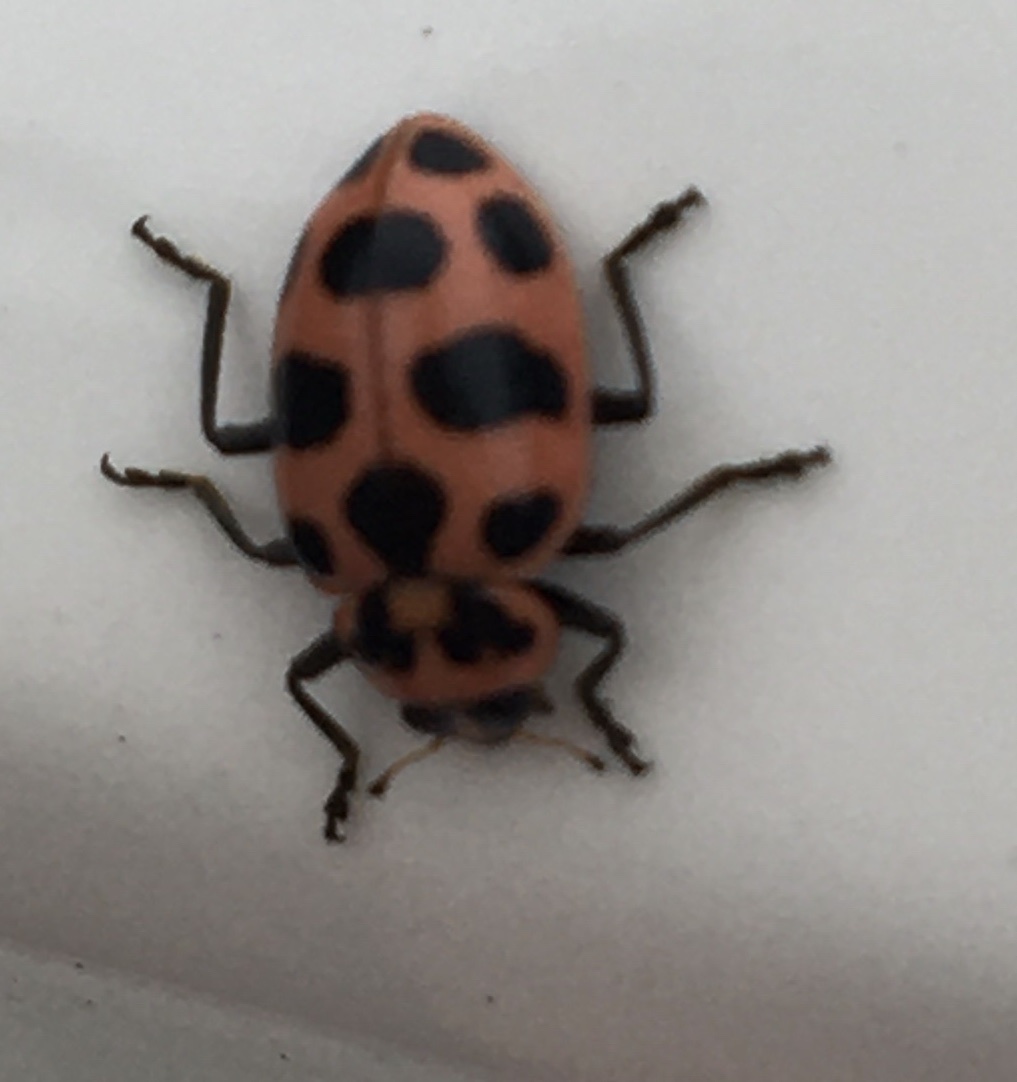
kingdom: Animalia
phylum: Arthropoda
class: Insecta
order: Coleoptera
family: Coccinellidae
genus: Coleomegilla
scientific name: Coleomegilla maculata
